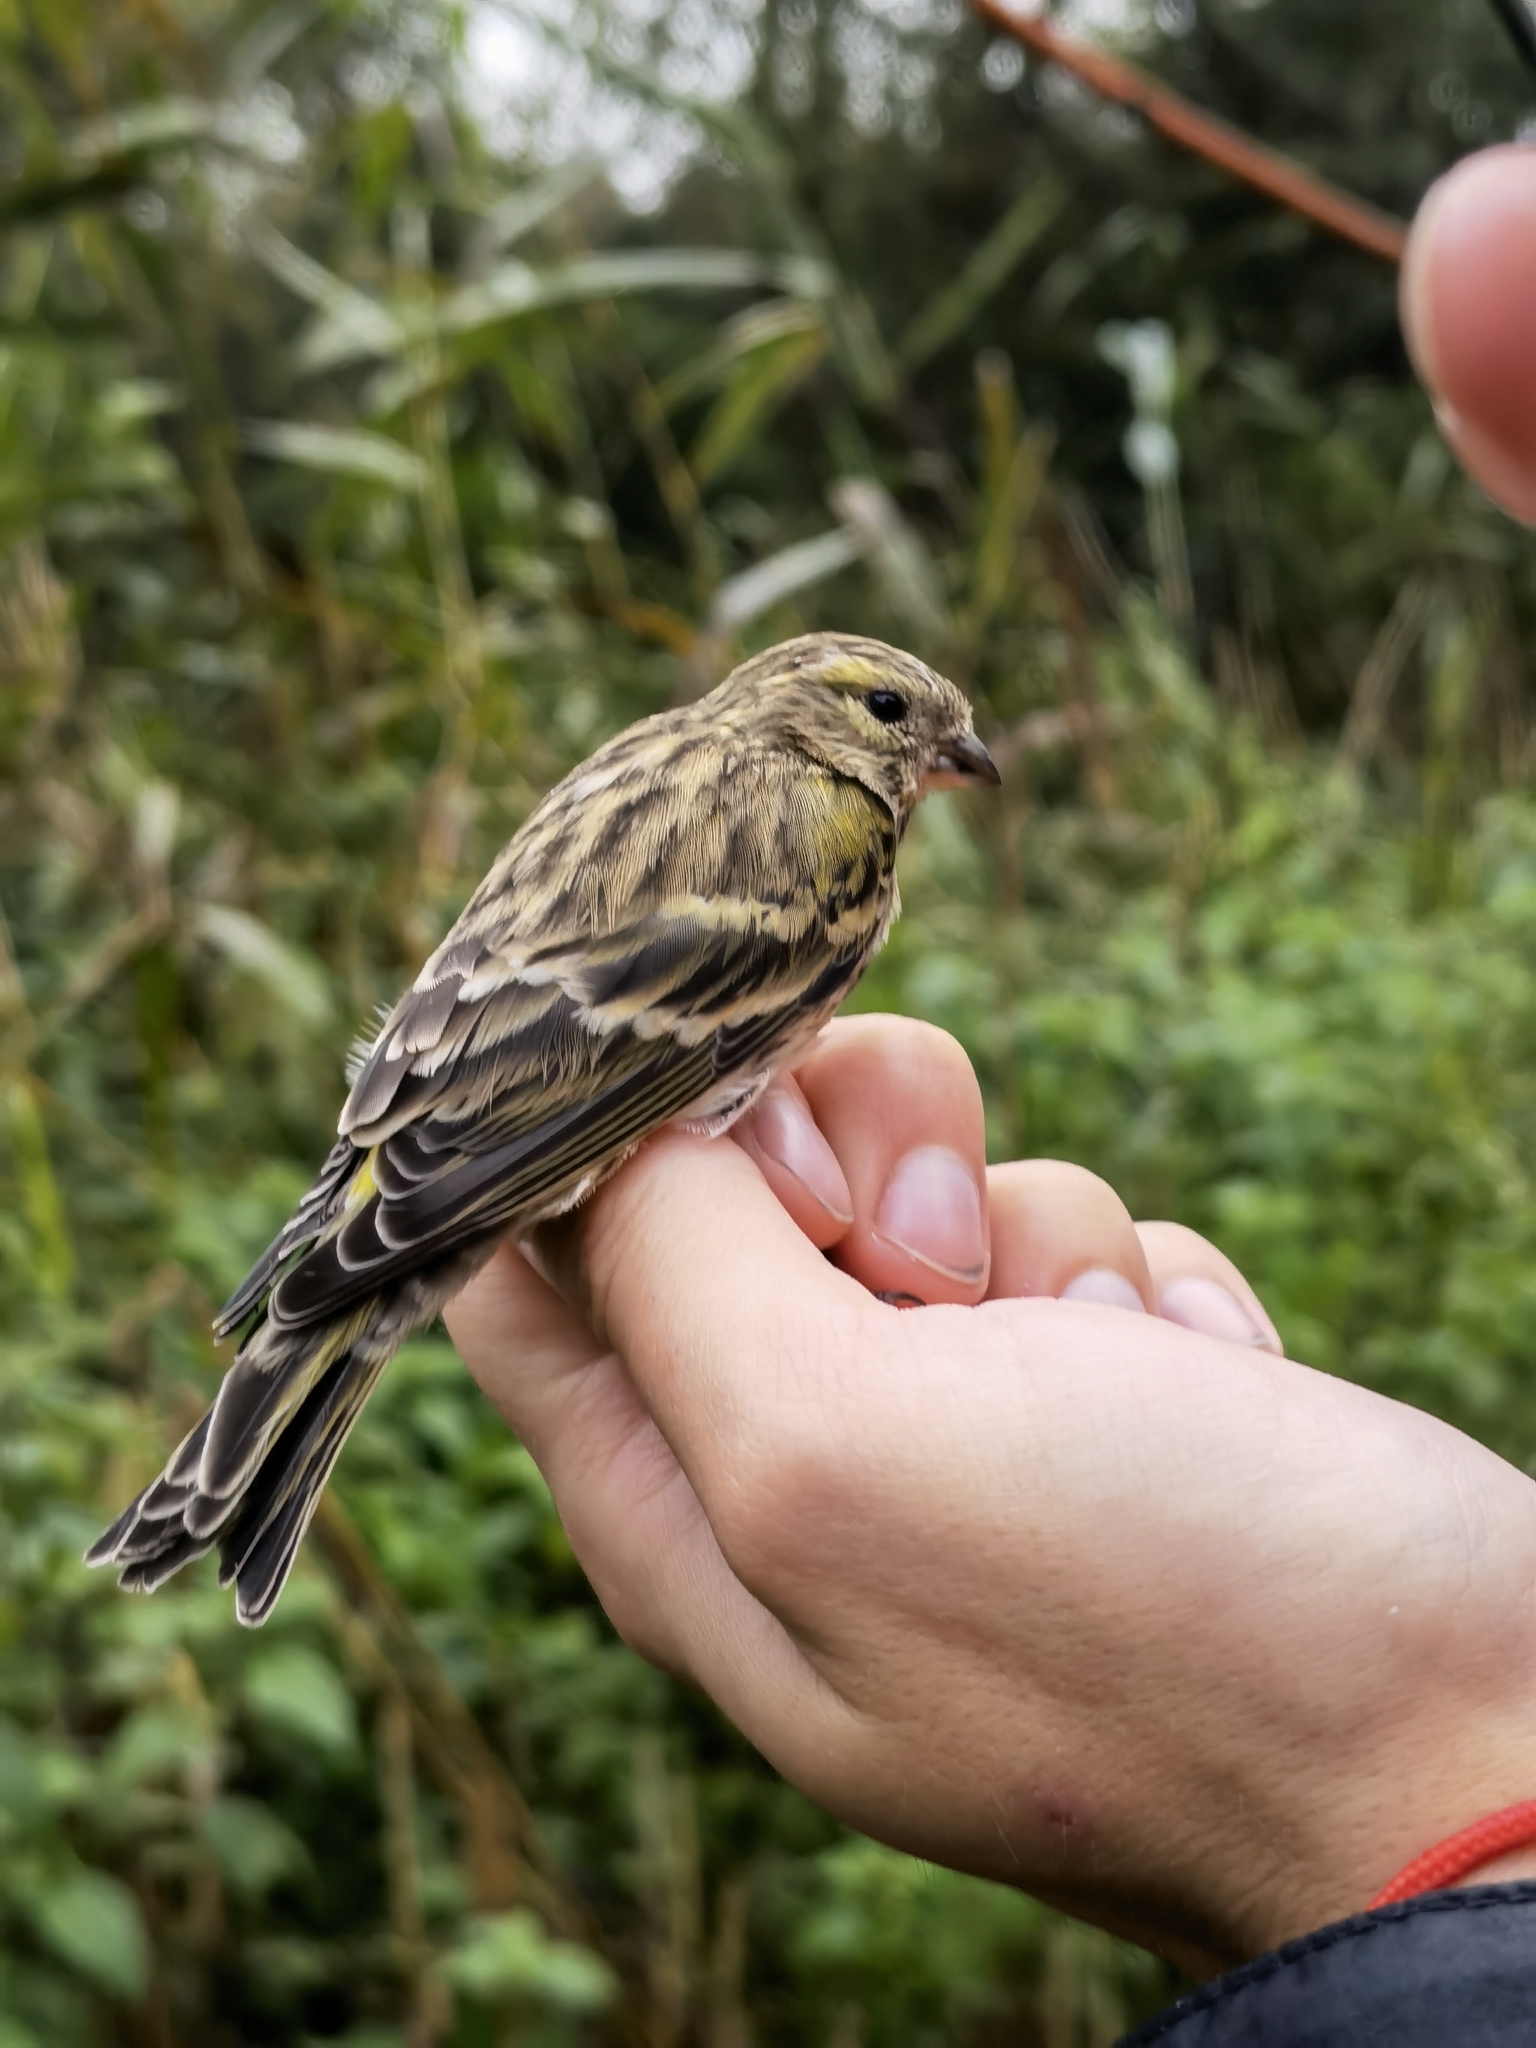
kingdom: Animalia
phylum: Chordata
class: Aves
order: Passeriformes
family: Fringillidae
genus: Serinus
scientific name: Serinus serinus
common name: European serin
